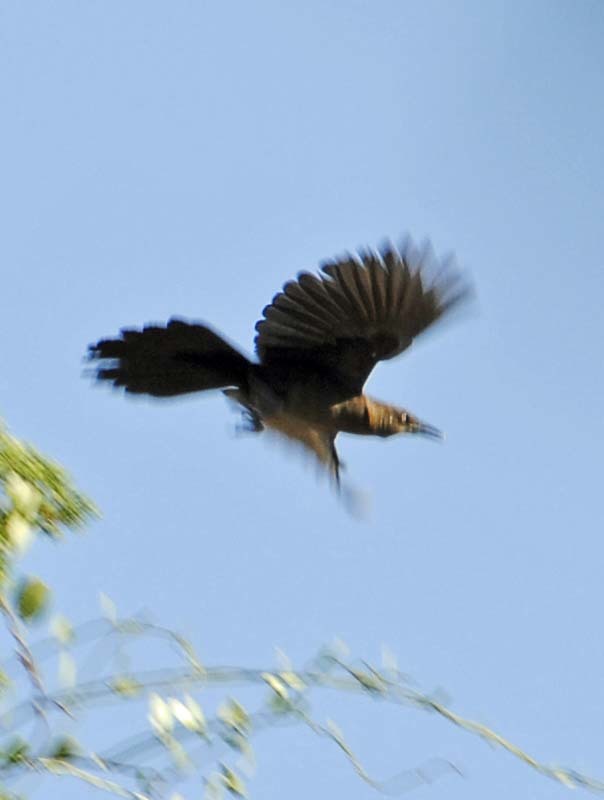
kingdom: Animalia
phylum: Chordata
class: Aves
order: Passeriformes
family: Icteridae
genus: Quiscalus
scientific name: Quiscalus mexicanus
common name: Great-tailed grackle
